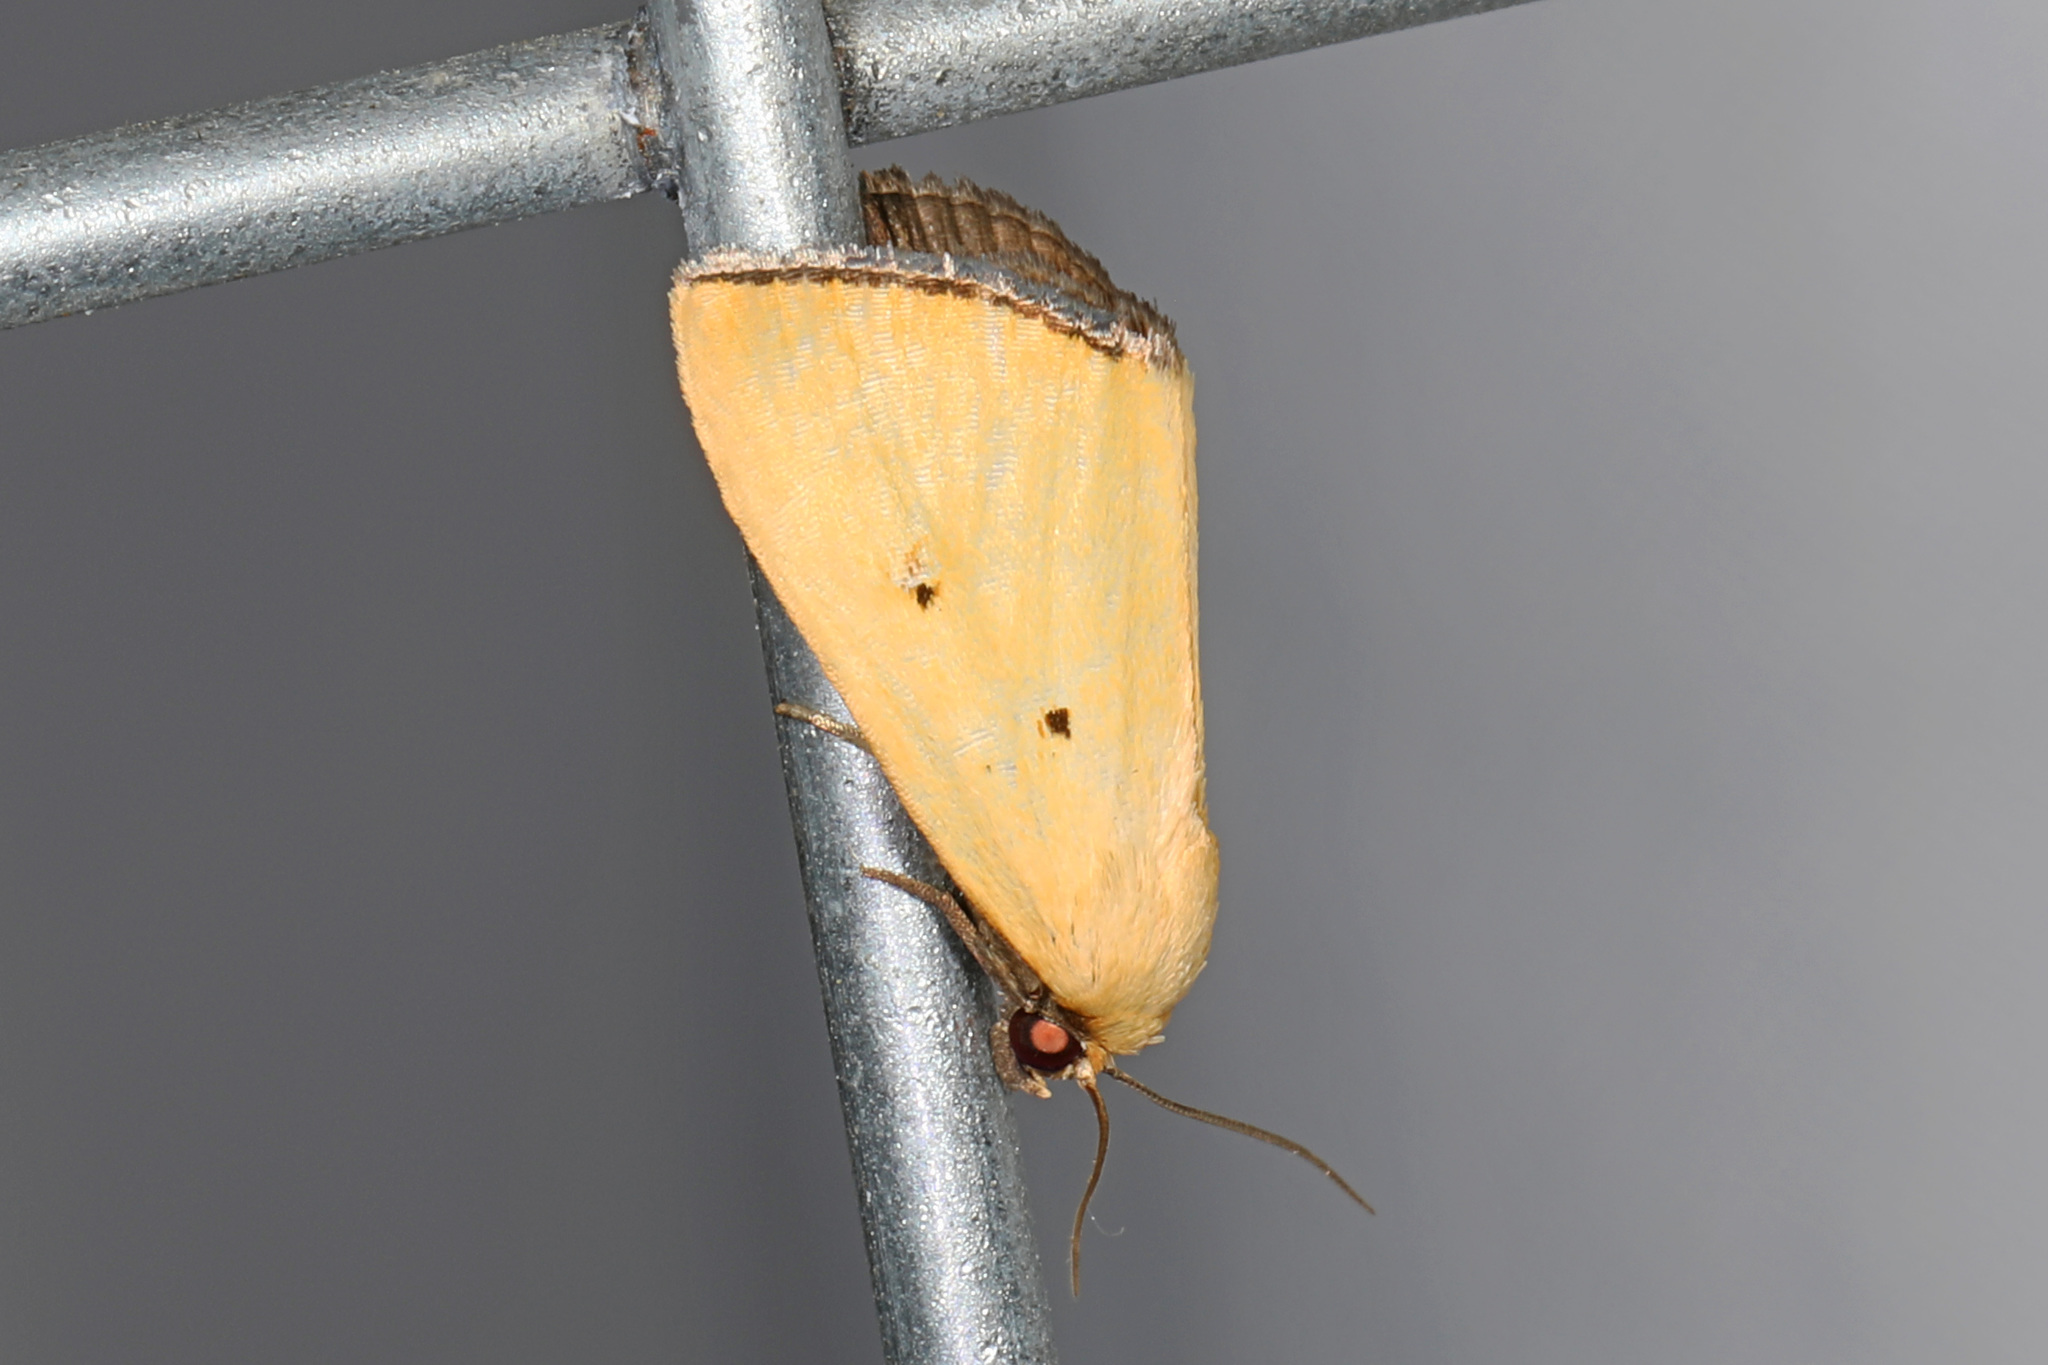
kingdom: Animalia
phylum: Arthropoda
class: Insecta
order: Lepidoptera
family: Noctuidae
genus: Marimatha
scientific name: Marimatha nigrofimbria
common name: Black-bordered lemon moth
